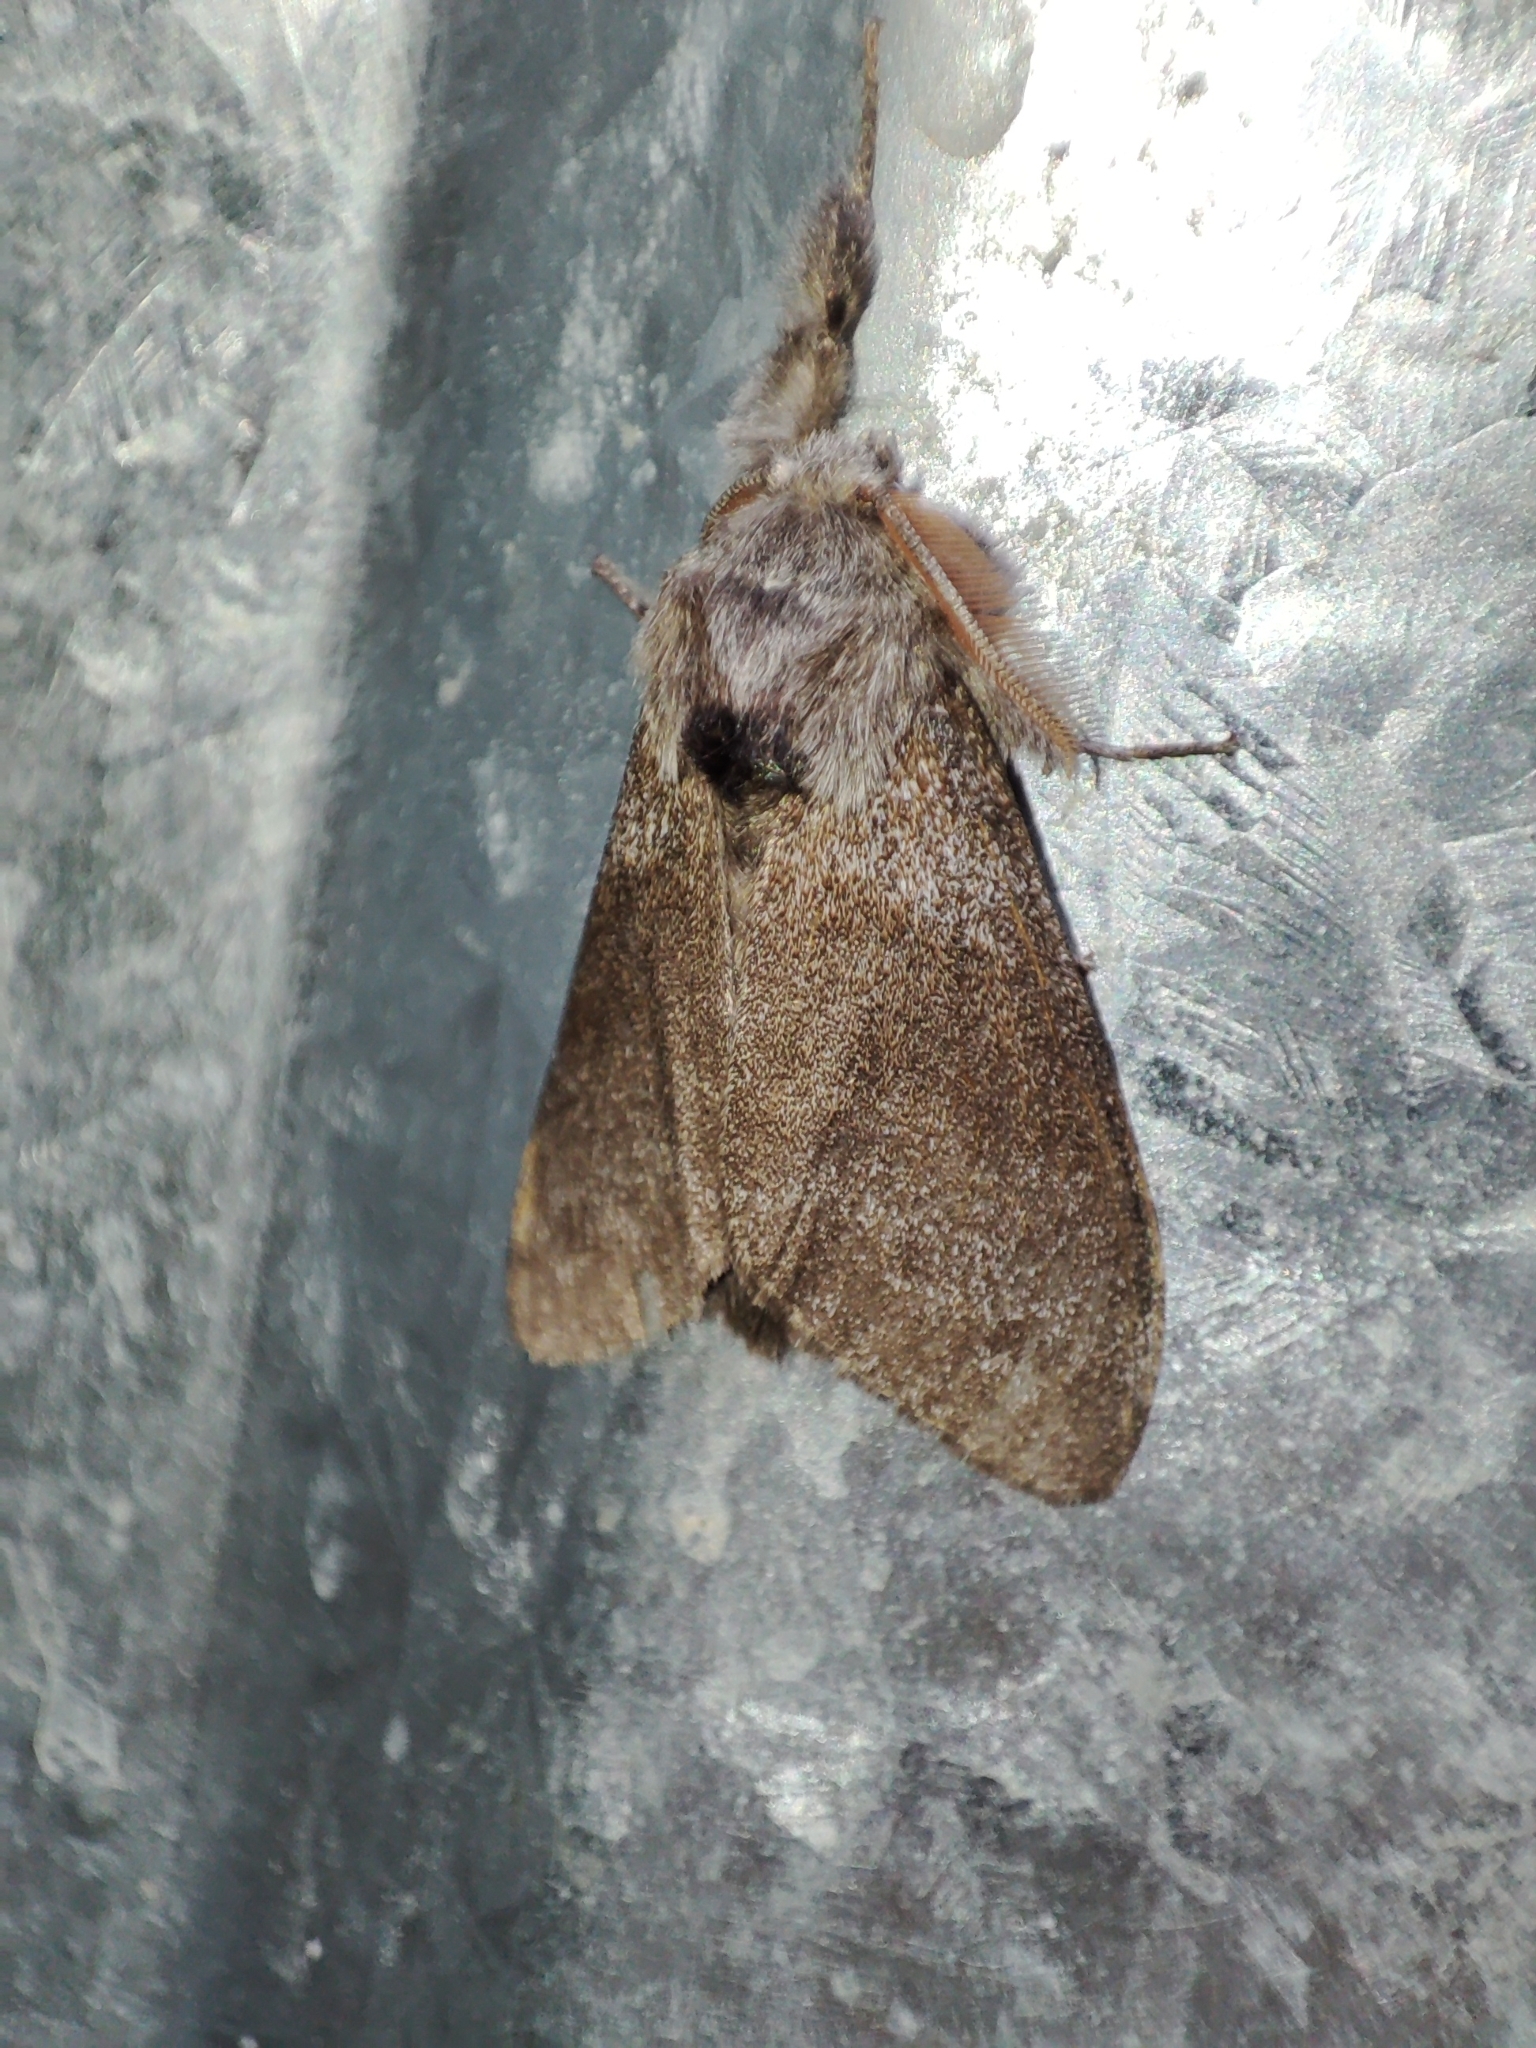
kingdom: Animalia
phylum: Arthropoda
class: Insecta
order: Lepidoptera
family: Erebidae
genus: Calliteara
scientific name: Calliteara pudibunda
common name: Pale tussock
